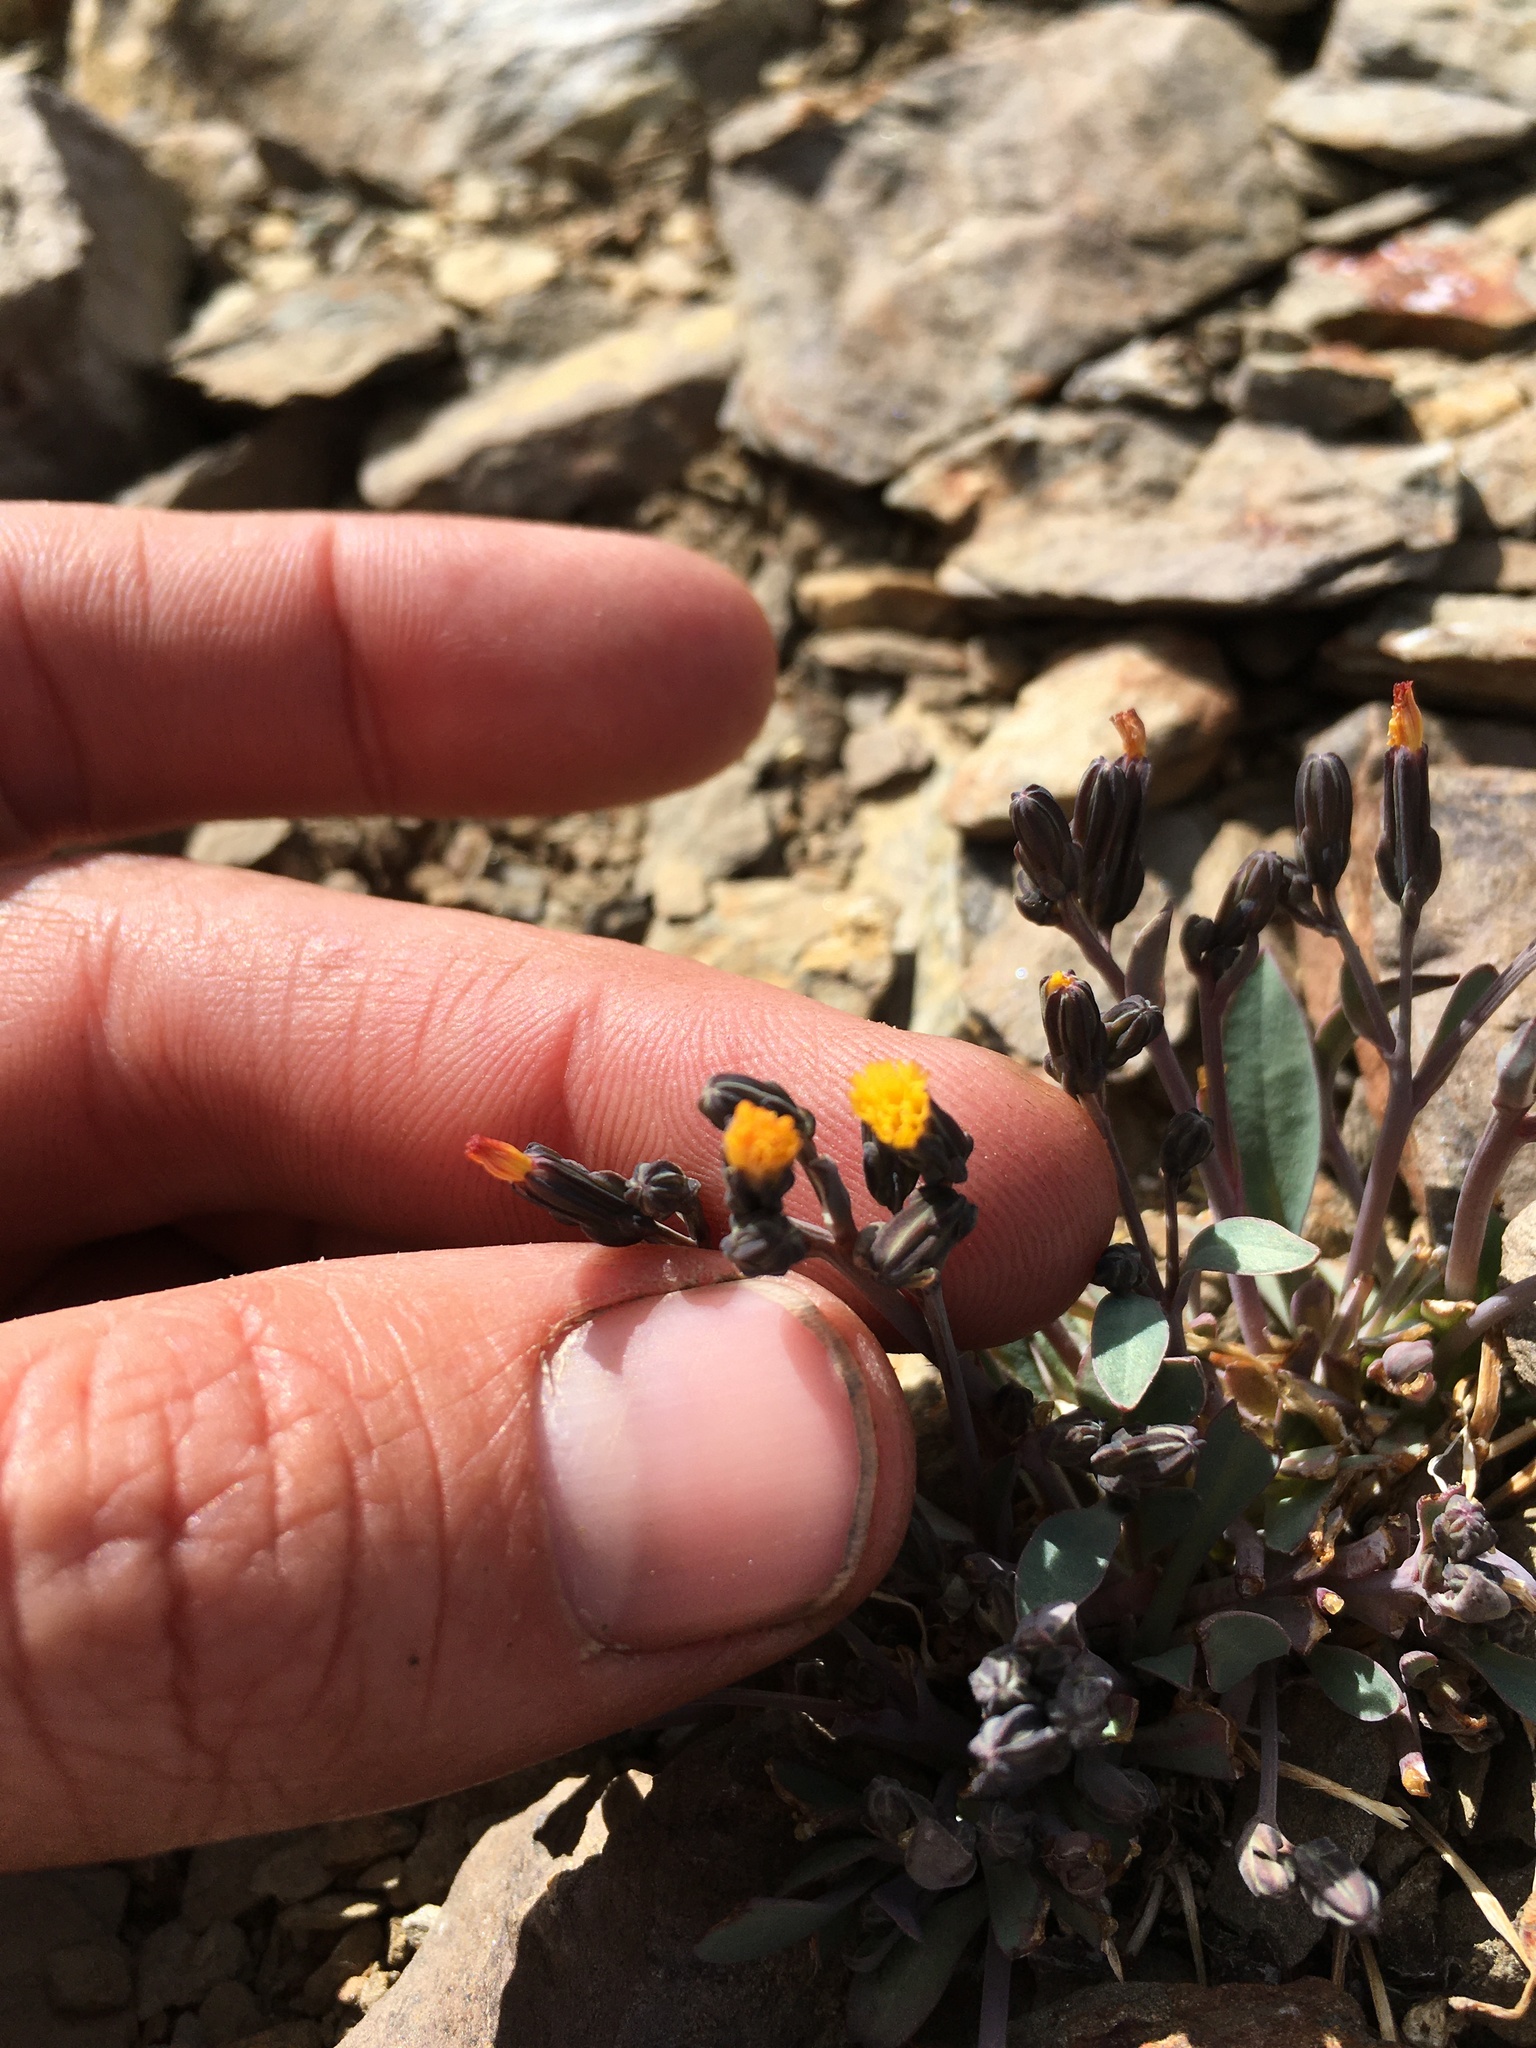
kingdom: Plantae
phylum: Tracheophyta
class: Magnoliopsida
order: Asterales
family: Asteraceae
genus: Askellia
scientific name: Askellia pygmaea
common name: Dwarf alpine hawksbeard
